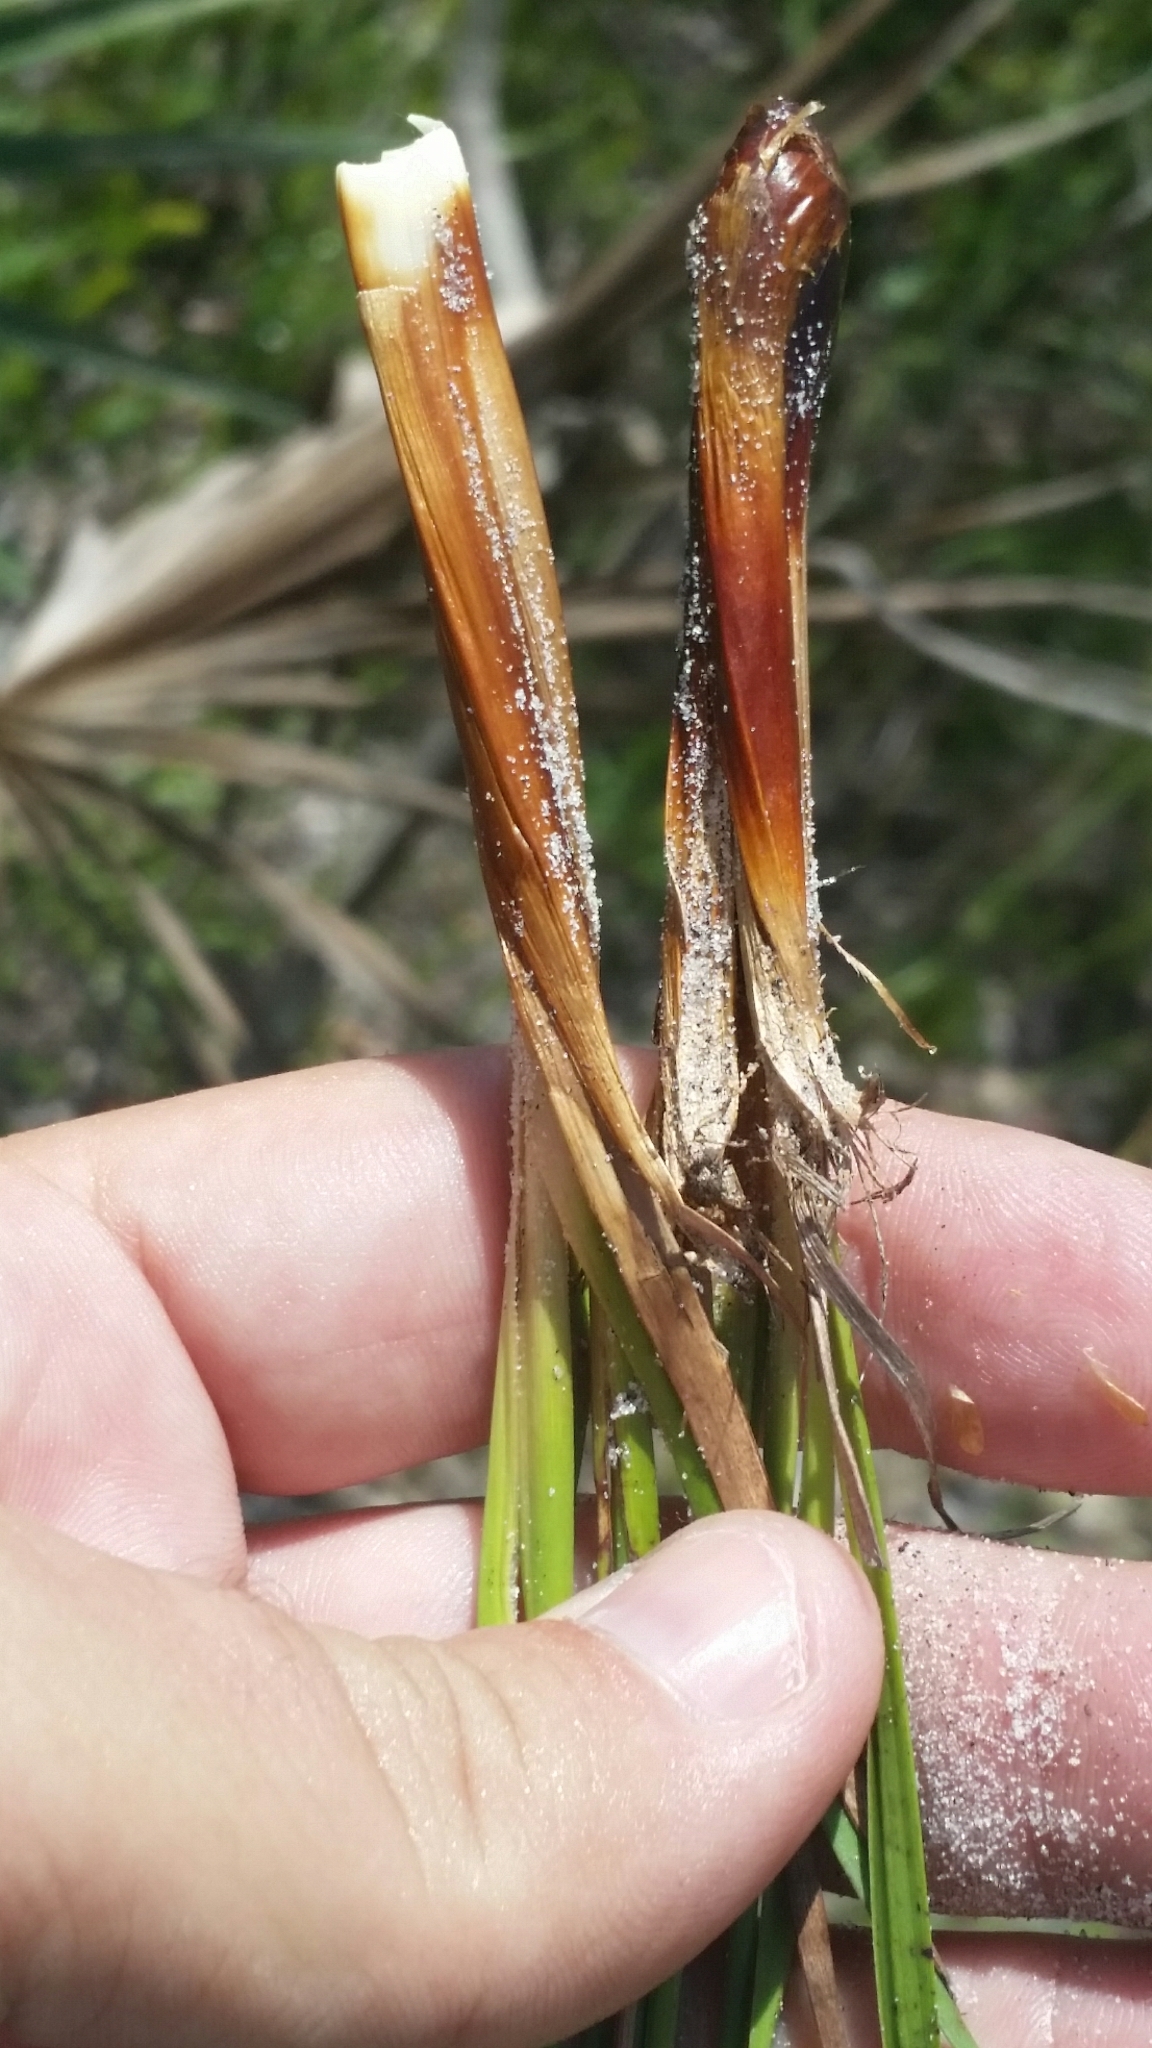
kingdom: Plantae
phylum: Tracheophyta
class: Liliopsida
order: Poales
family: Xyridaceae
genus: Xyris
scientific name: Xyris caroliniana
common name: Carolina yellow-eyed-grass
